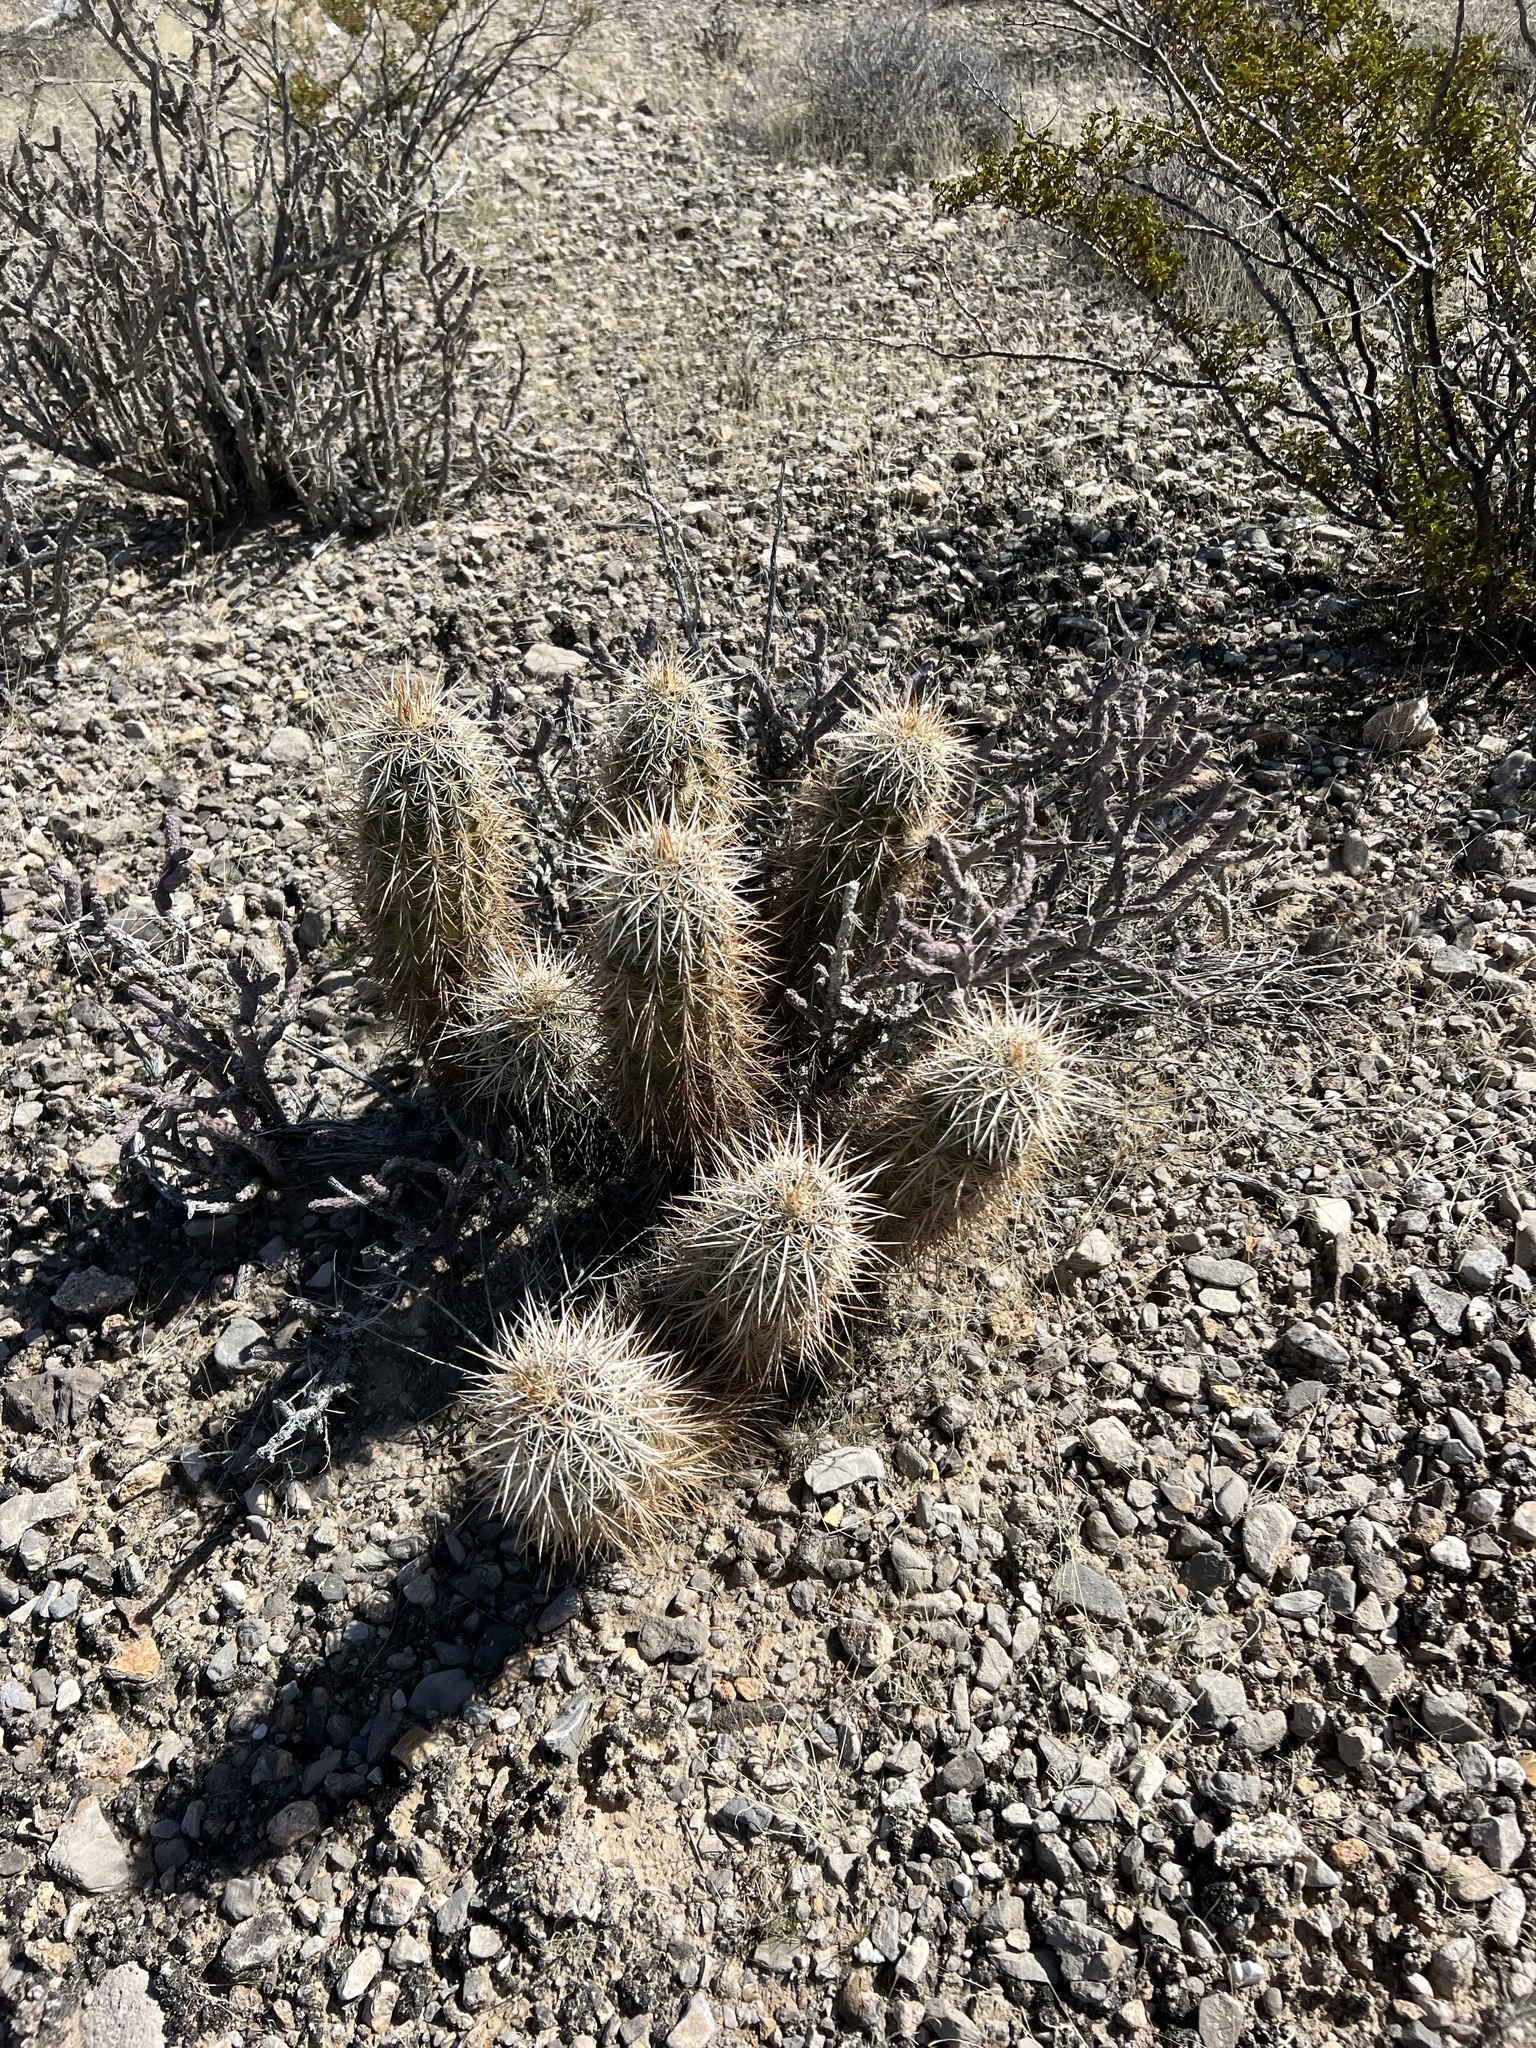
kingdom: Plantae
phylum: Tracheophyta
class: Magnoliopsida
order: Caryophyllales
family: Cactaceae
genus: Echinocereus
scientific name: Echinocereus engelmannii
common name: Engelmann's hedgehog cactus
